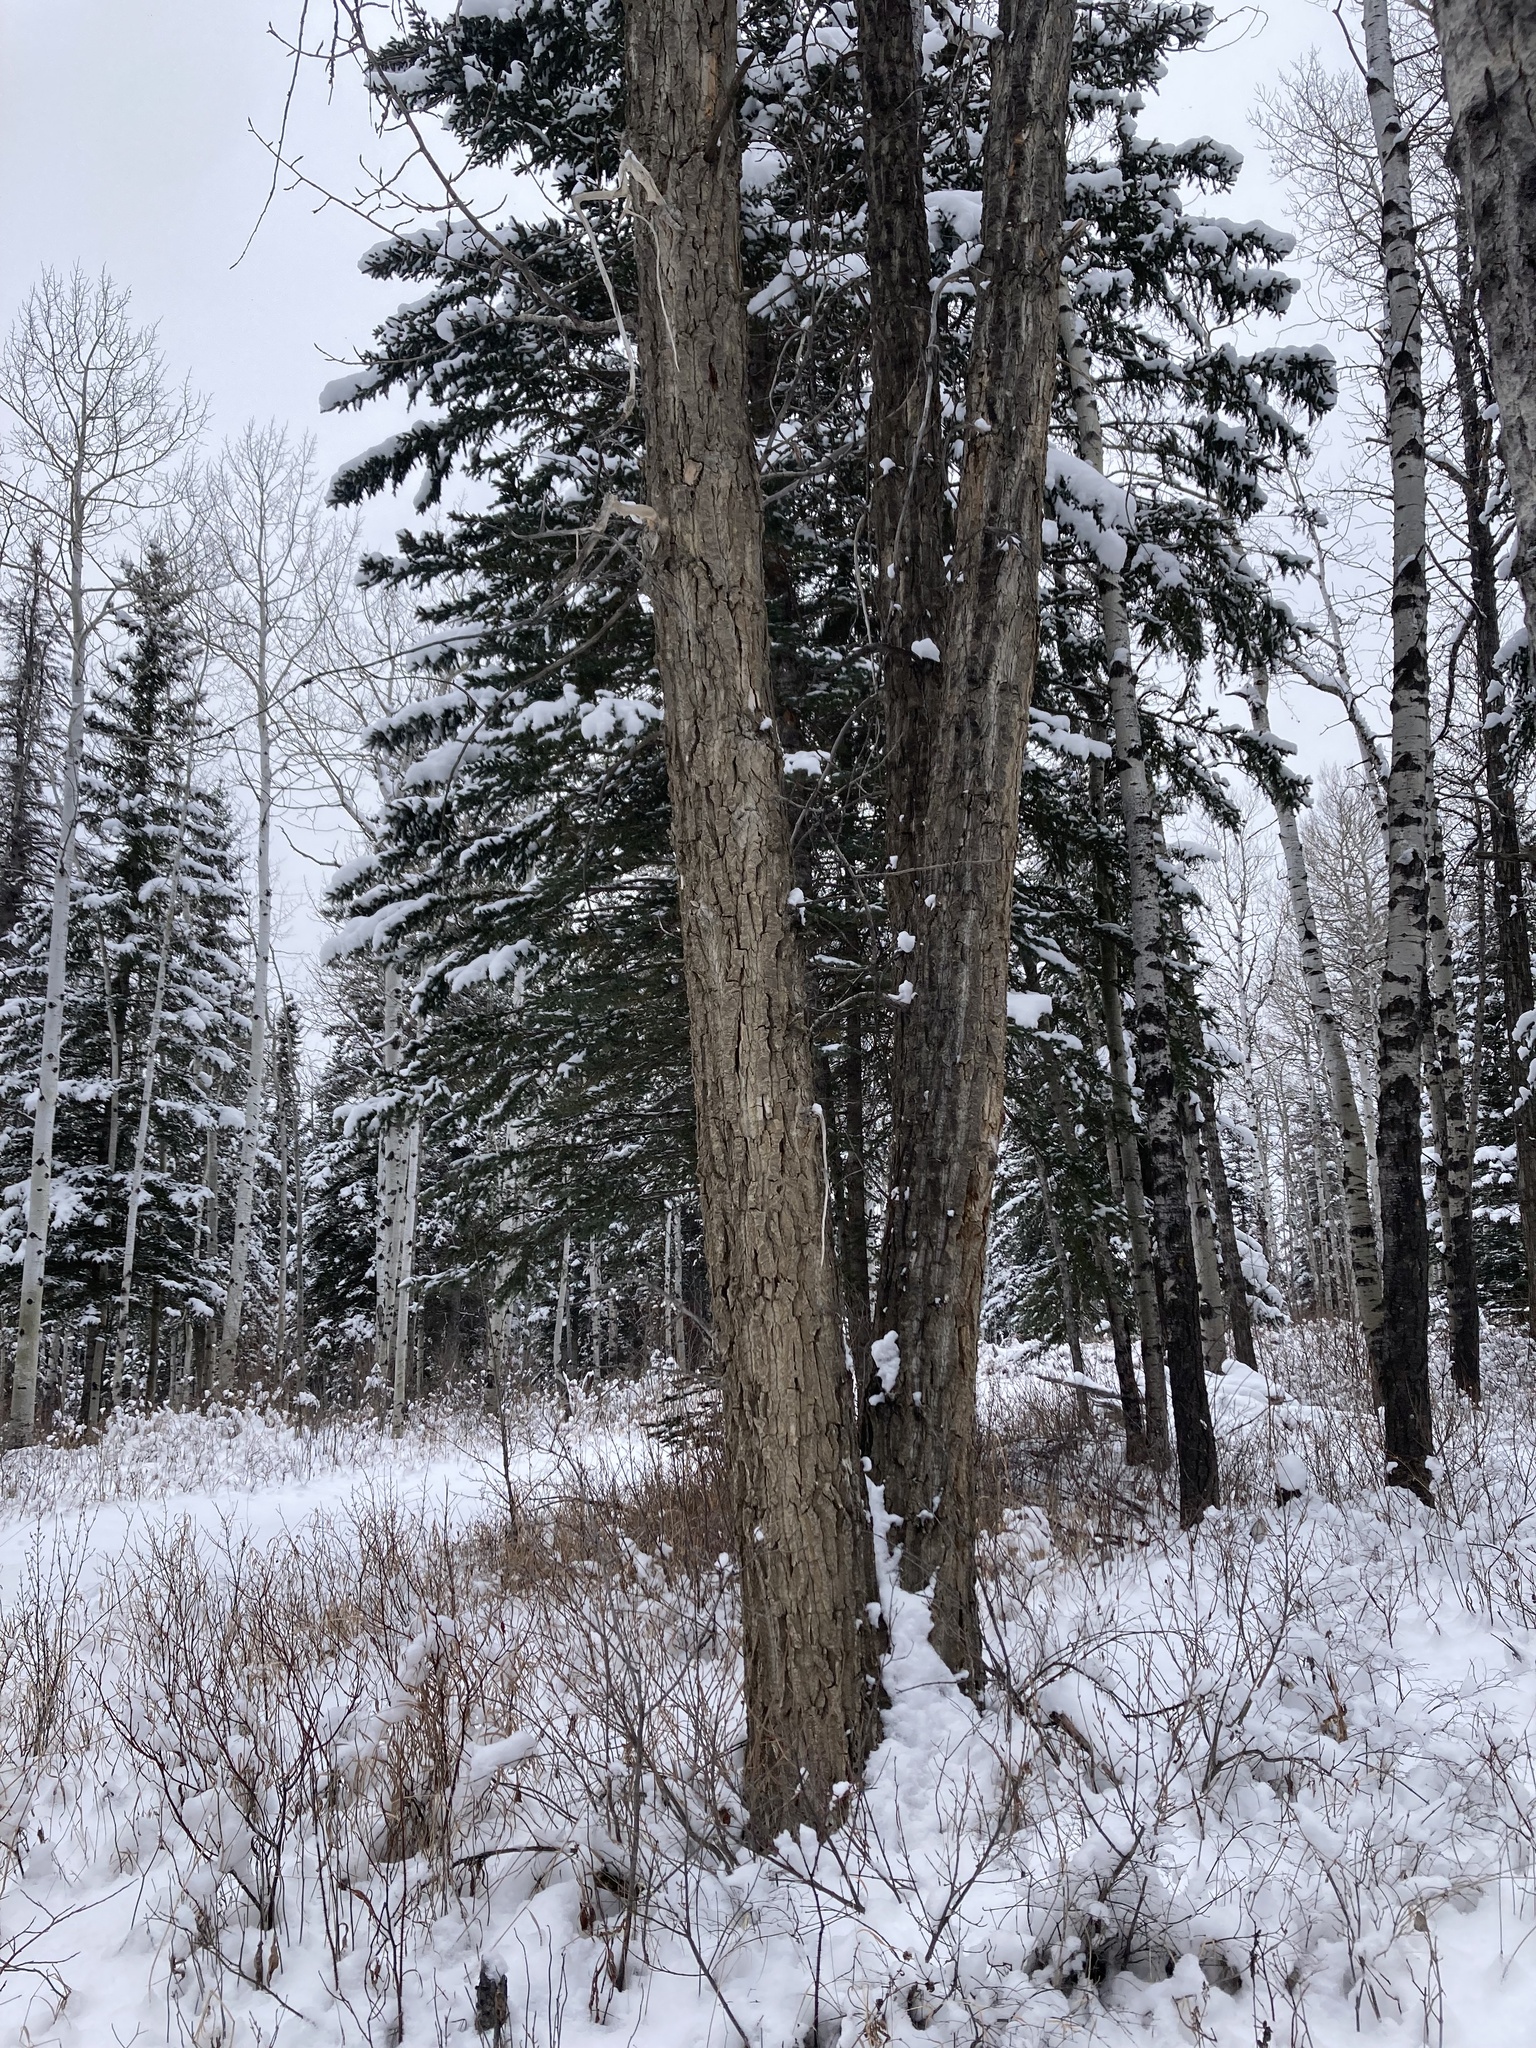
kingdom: Plantae
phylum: Tracheophyta
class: Magnoliopsida
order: Malpighiales
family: Salicaceae
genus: Populus
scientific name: Populus balsamifera
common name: Balsam poplar
